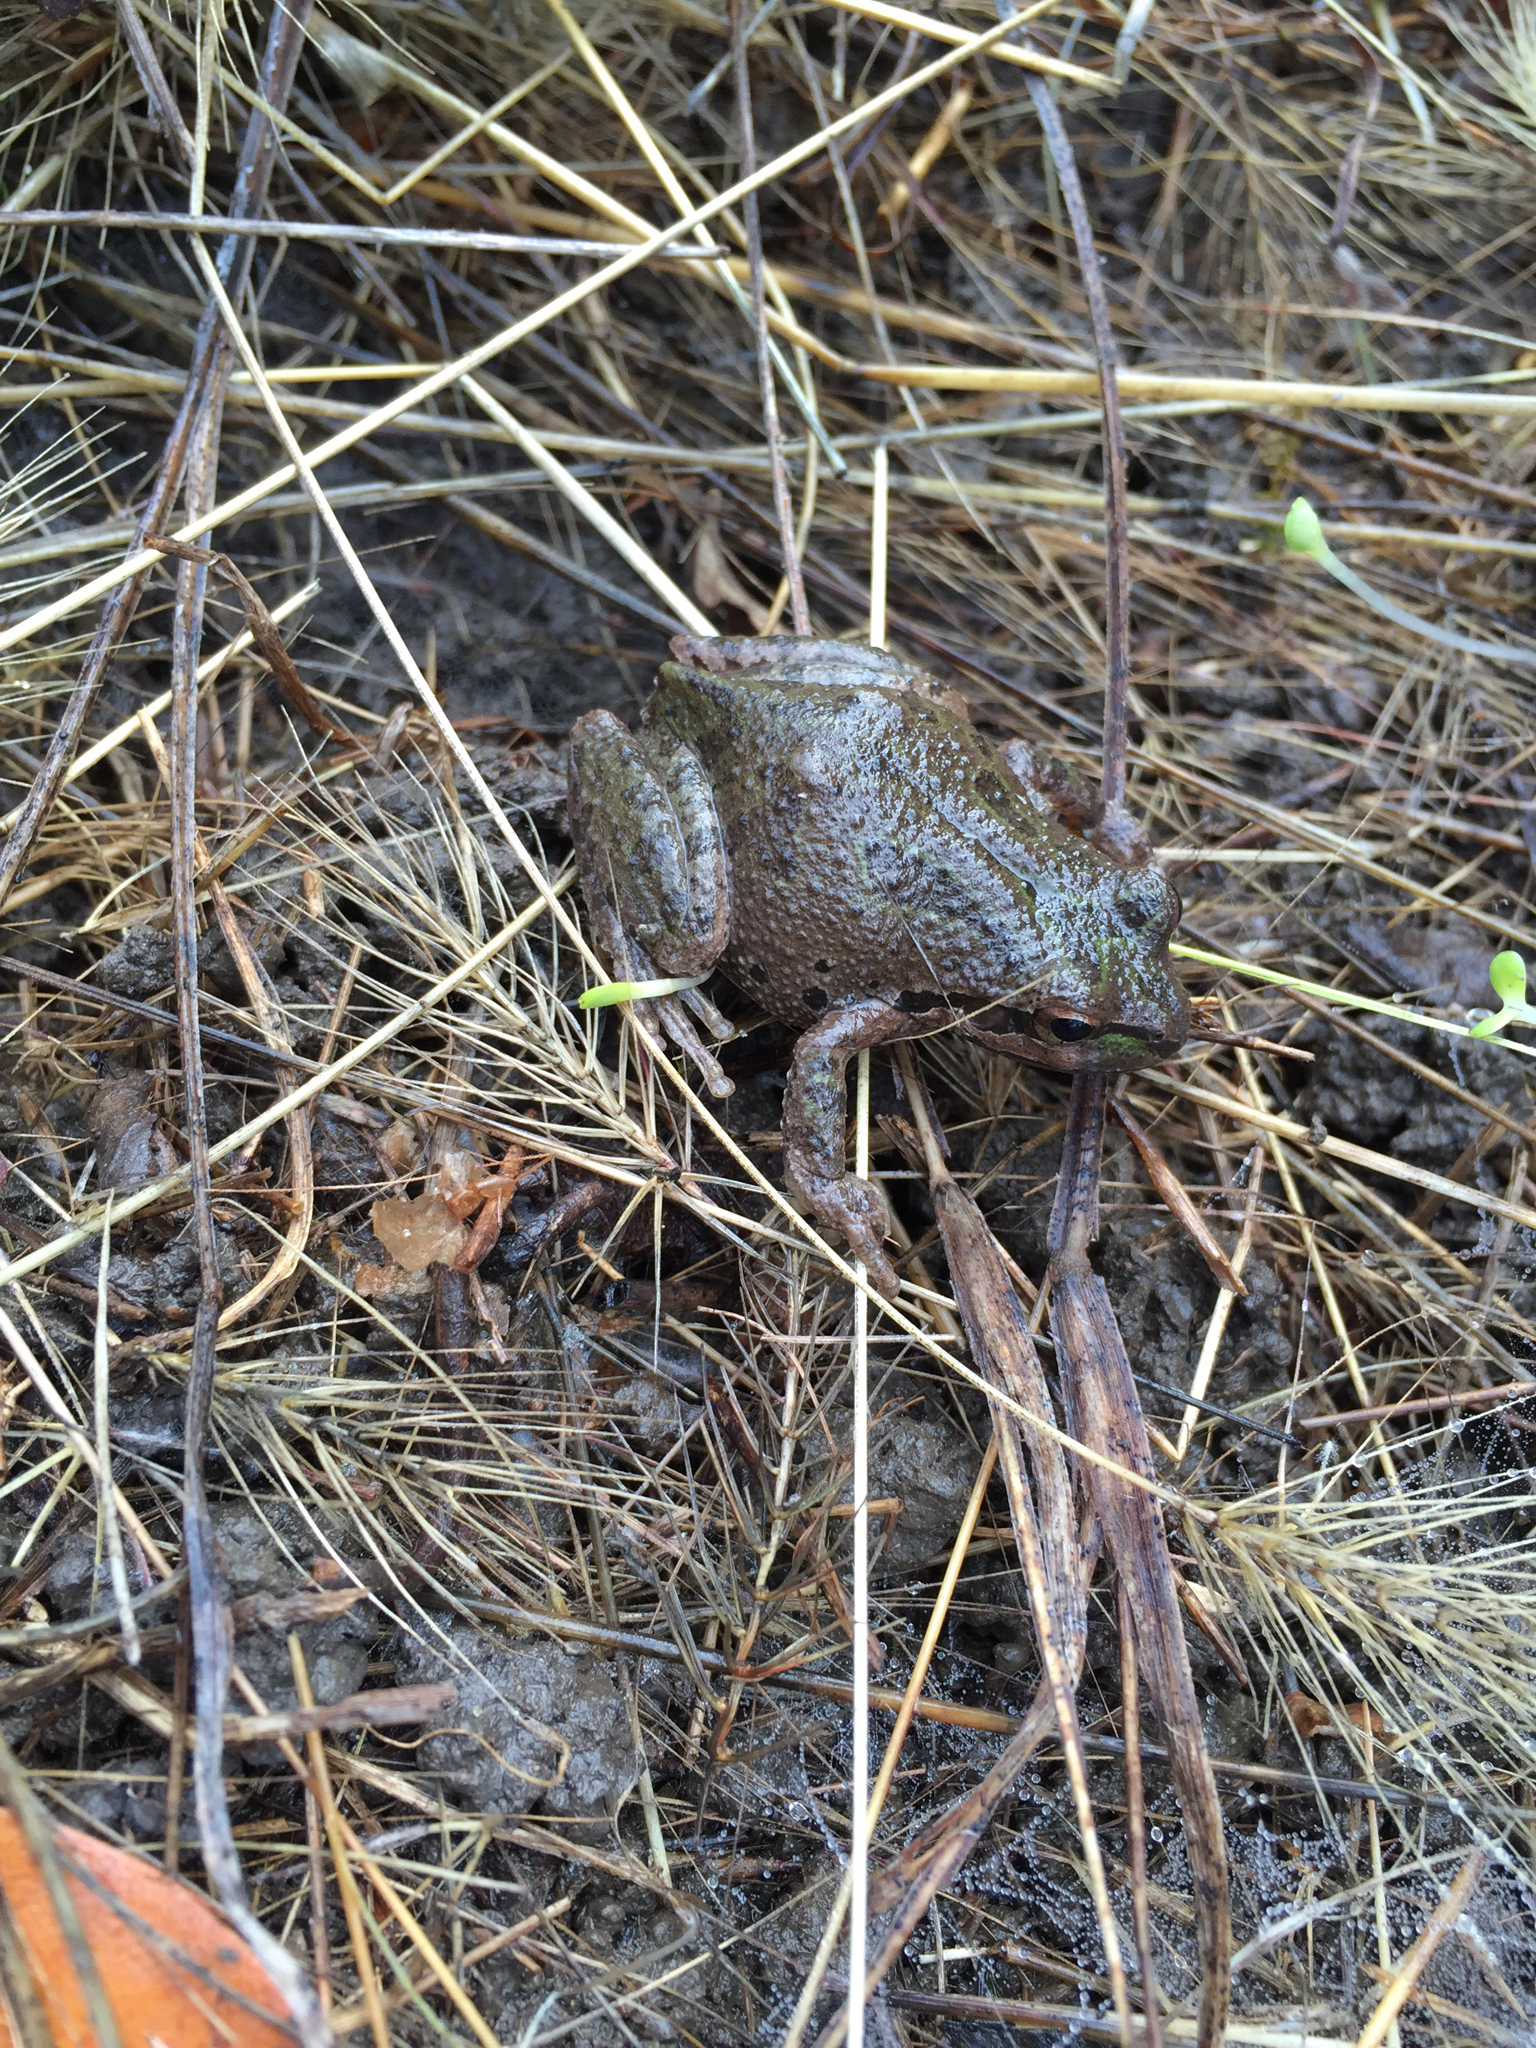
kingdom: Animalia
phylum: Chordata
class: Amphibia
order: Anura
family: Hylidae
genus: Pseudacris
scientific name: Pseudacris regilla
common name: Pacific chorus frog
